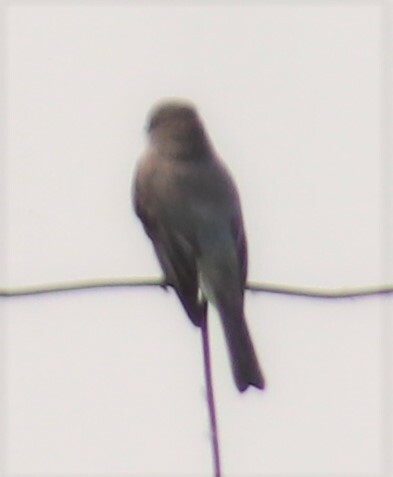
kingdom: Animalia
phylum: Chordata
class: Aves
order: Passeriformes
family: Tyrannidae
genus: Sayornis
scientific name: Sayornis phoebe
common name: Eastern phoebe
